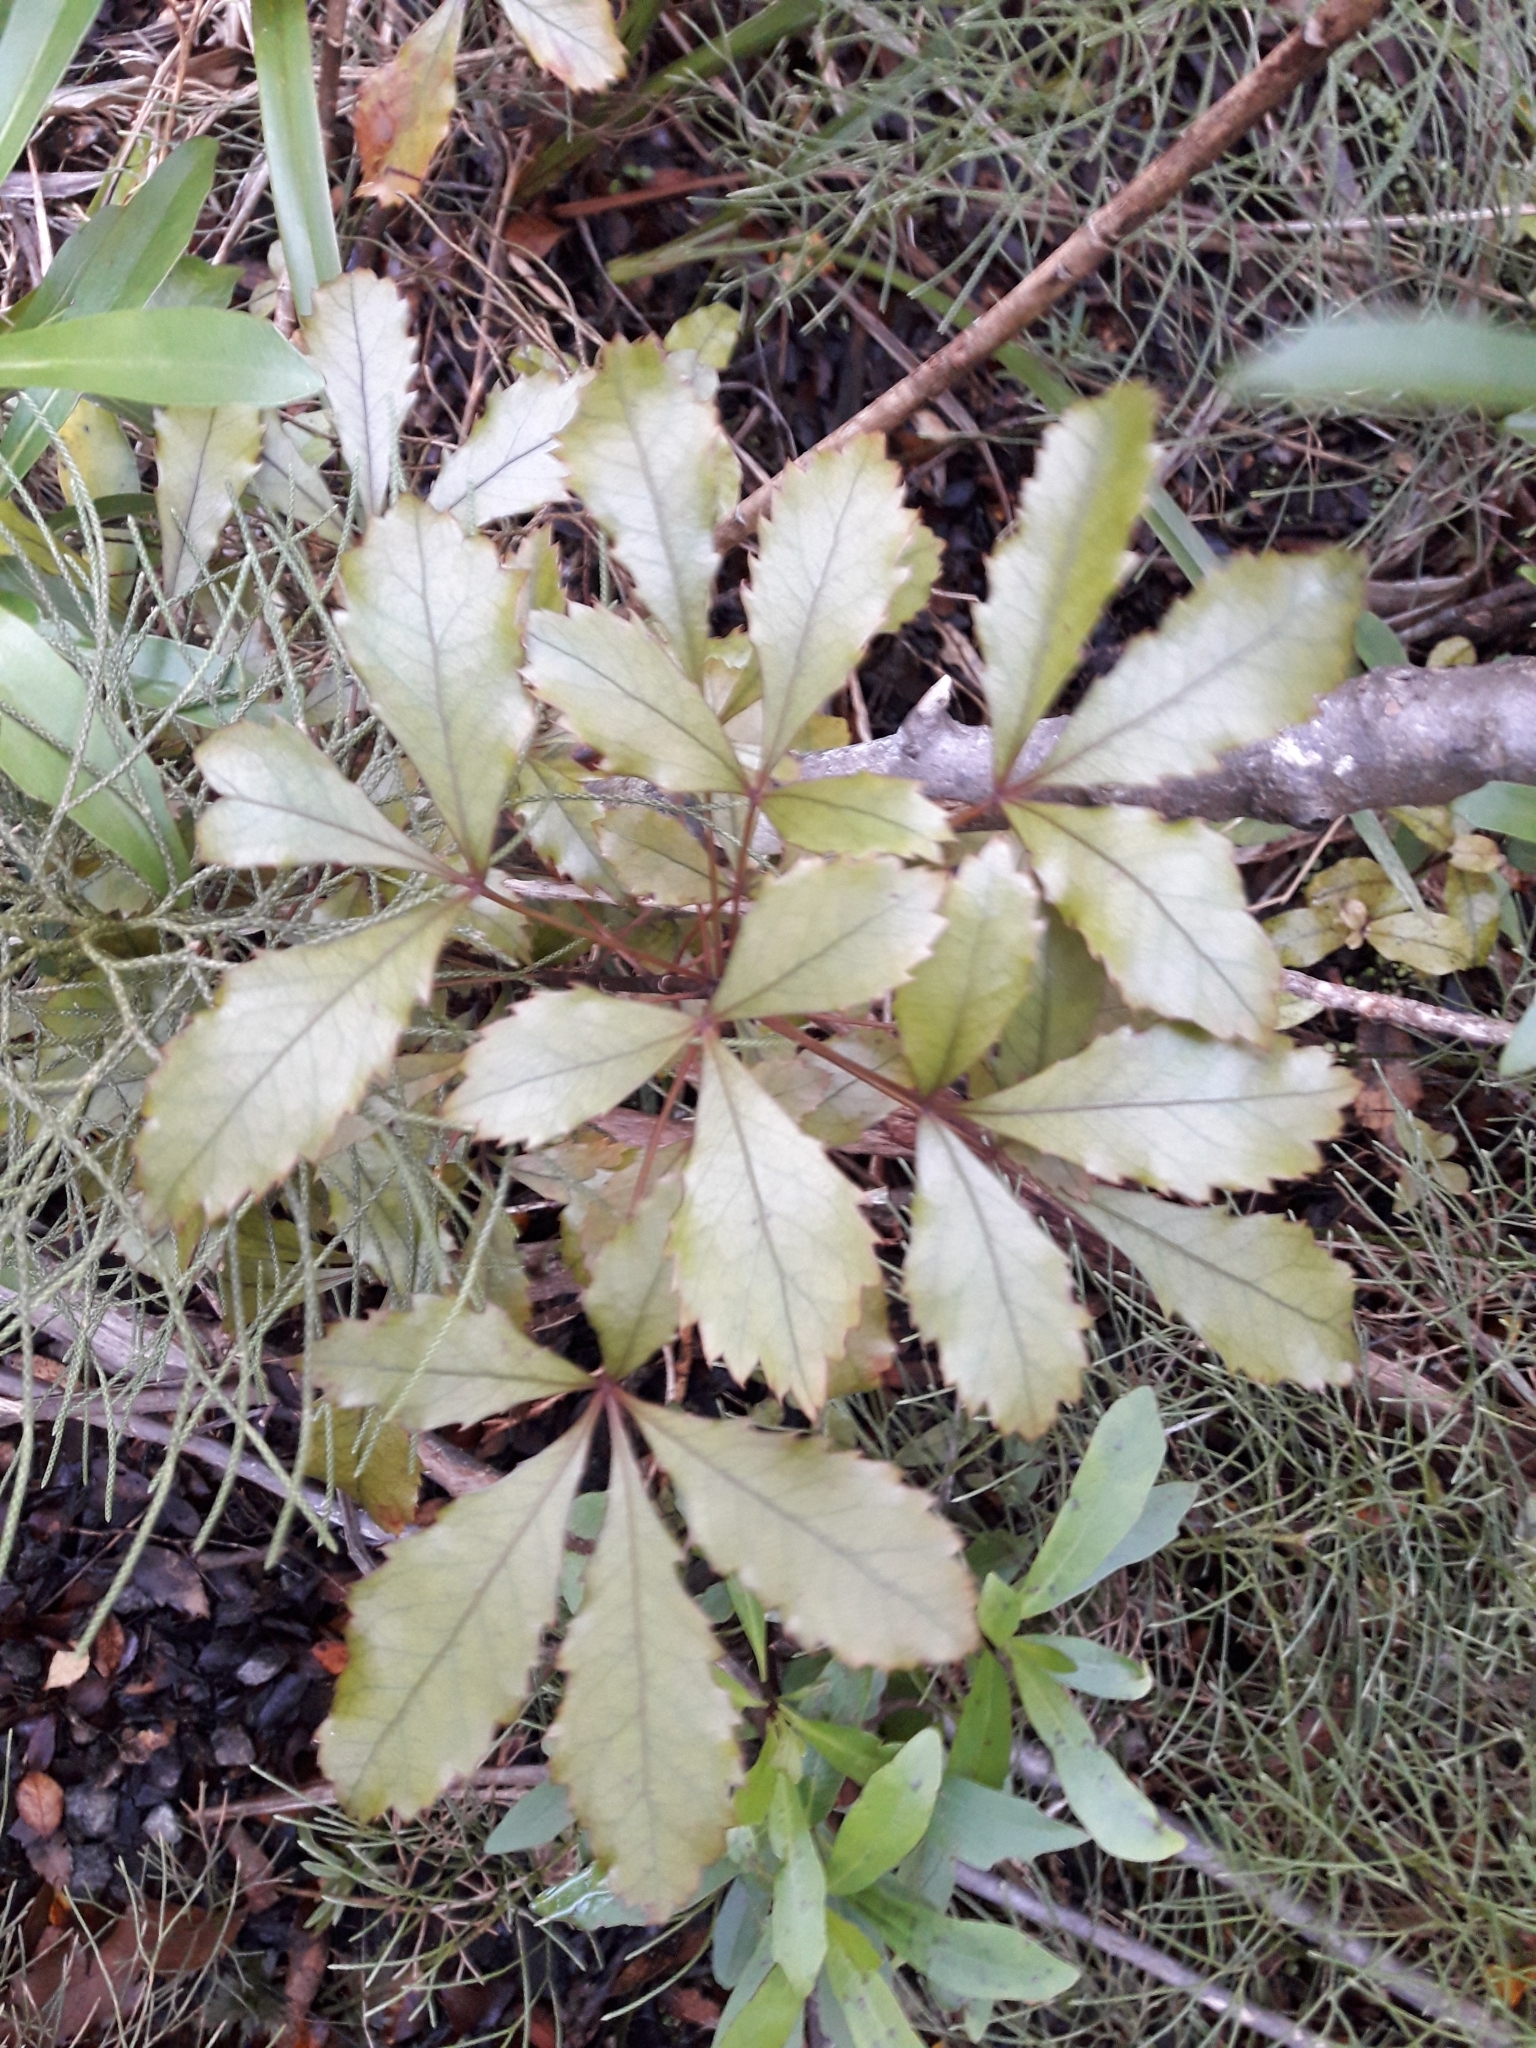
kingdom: Plantae
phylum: Tracheophyta
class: Magnoliopsida
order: Apiales
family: Araliaceae
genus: Pseudopanax
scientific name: Pseudopanax discolor
